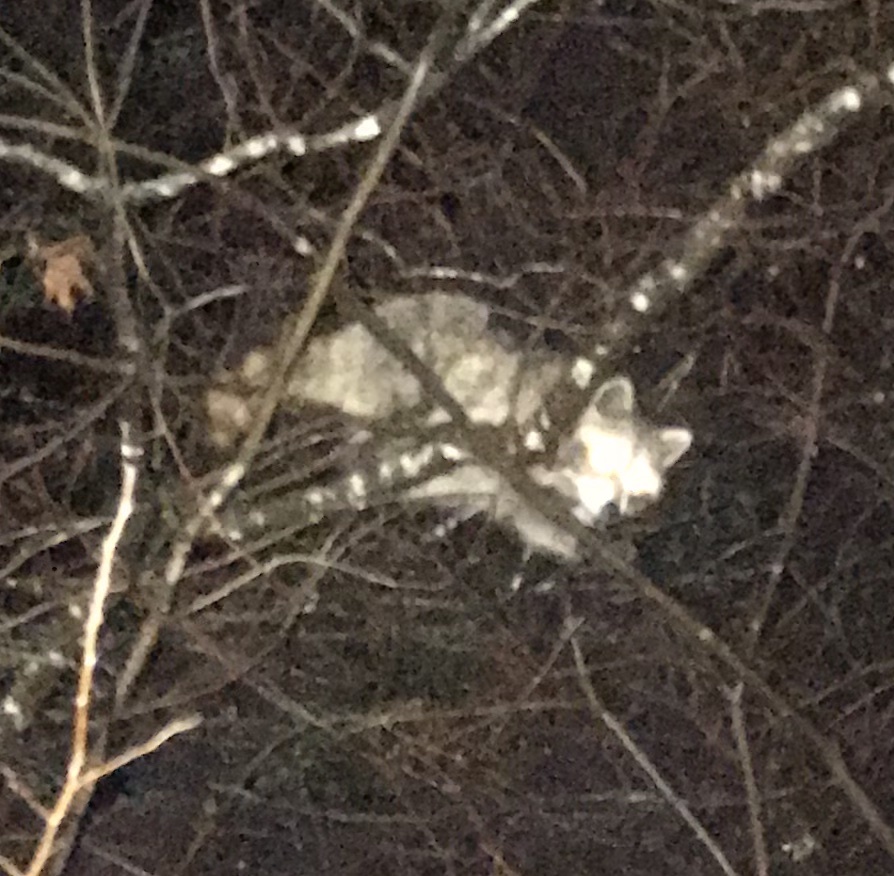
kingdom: Animalia
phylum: Chordata
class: Mammalia
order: Carnivora
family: Procyonidae
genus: Procyon
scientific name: Procyon lotor
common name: Raccoon
